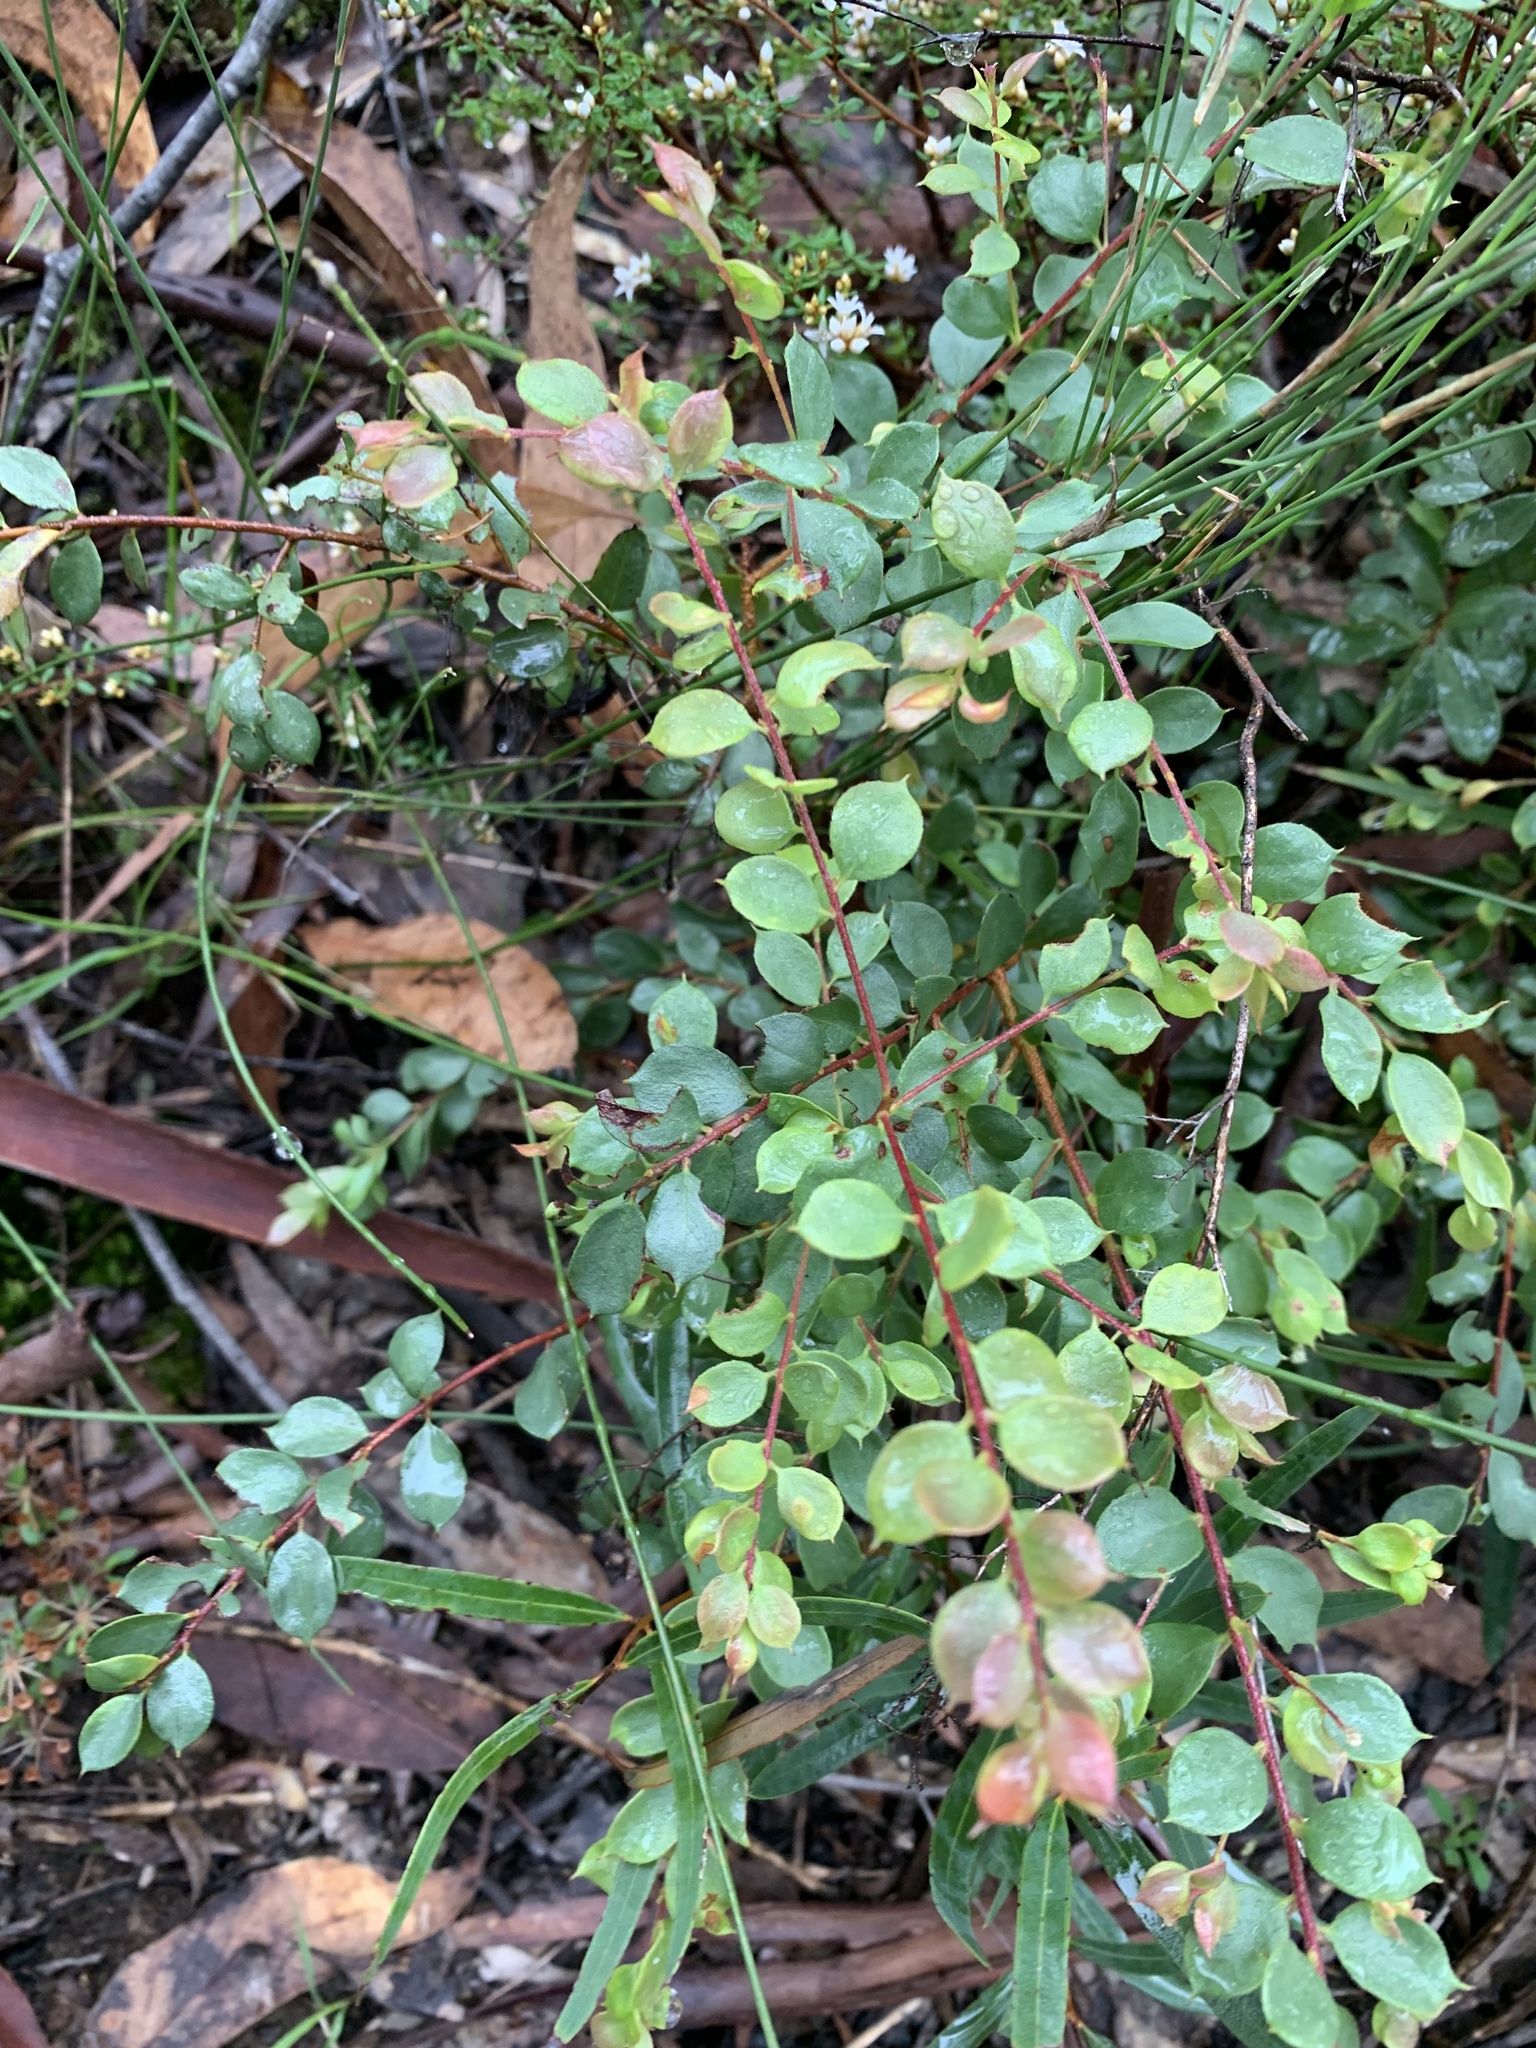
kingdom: Plantae
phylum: Tracheophyta
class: Magnoliopsida
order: Proteales
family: Proteaceae
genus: Grevillea
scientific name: Grevillea mucronulata
